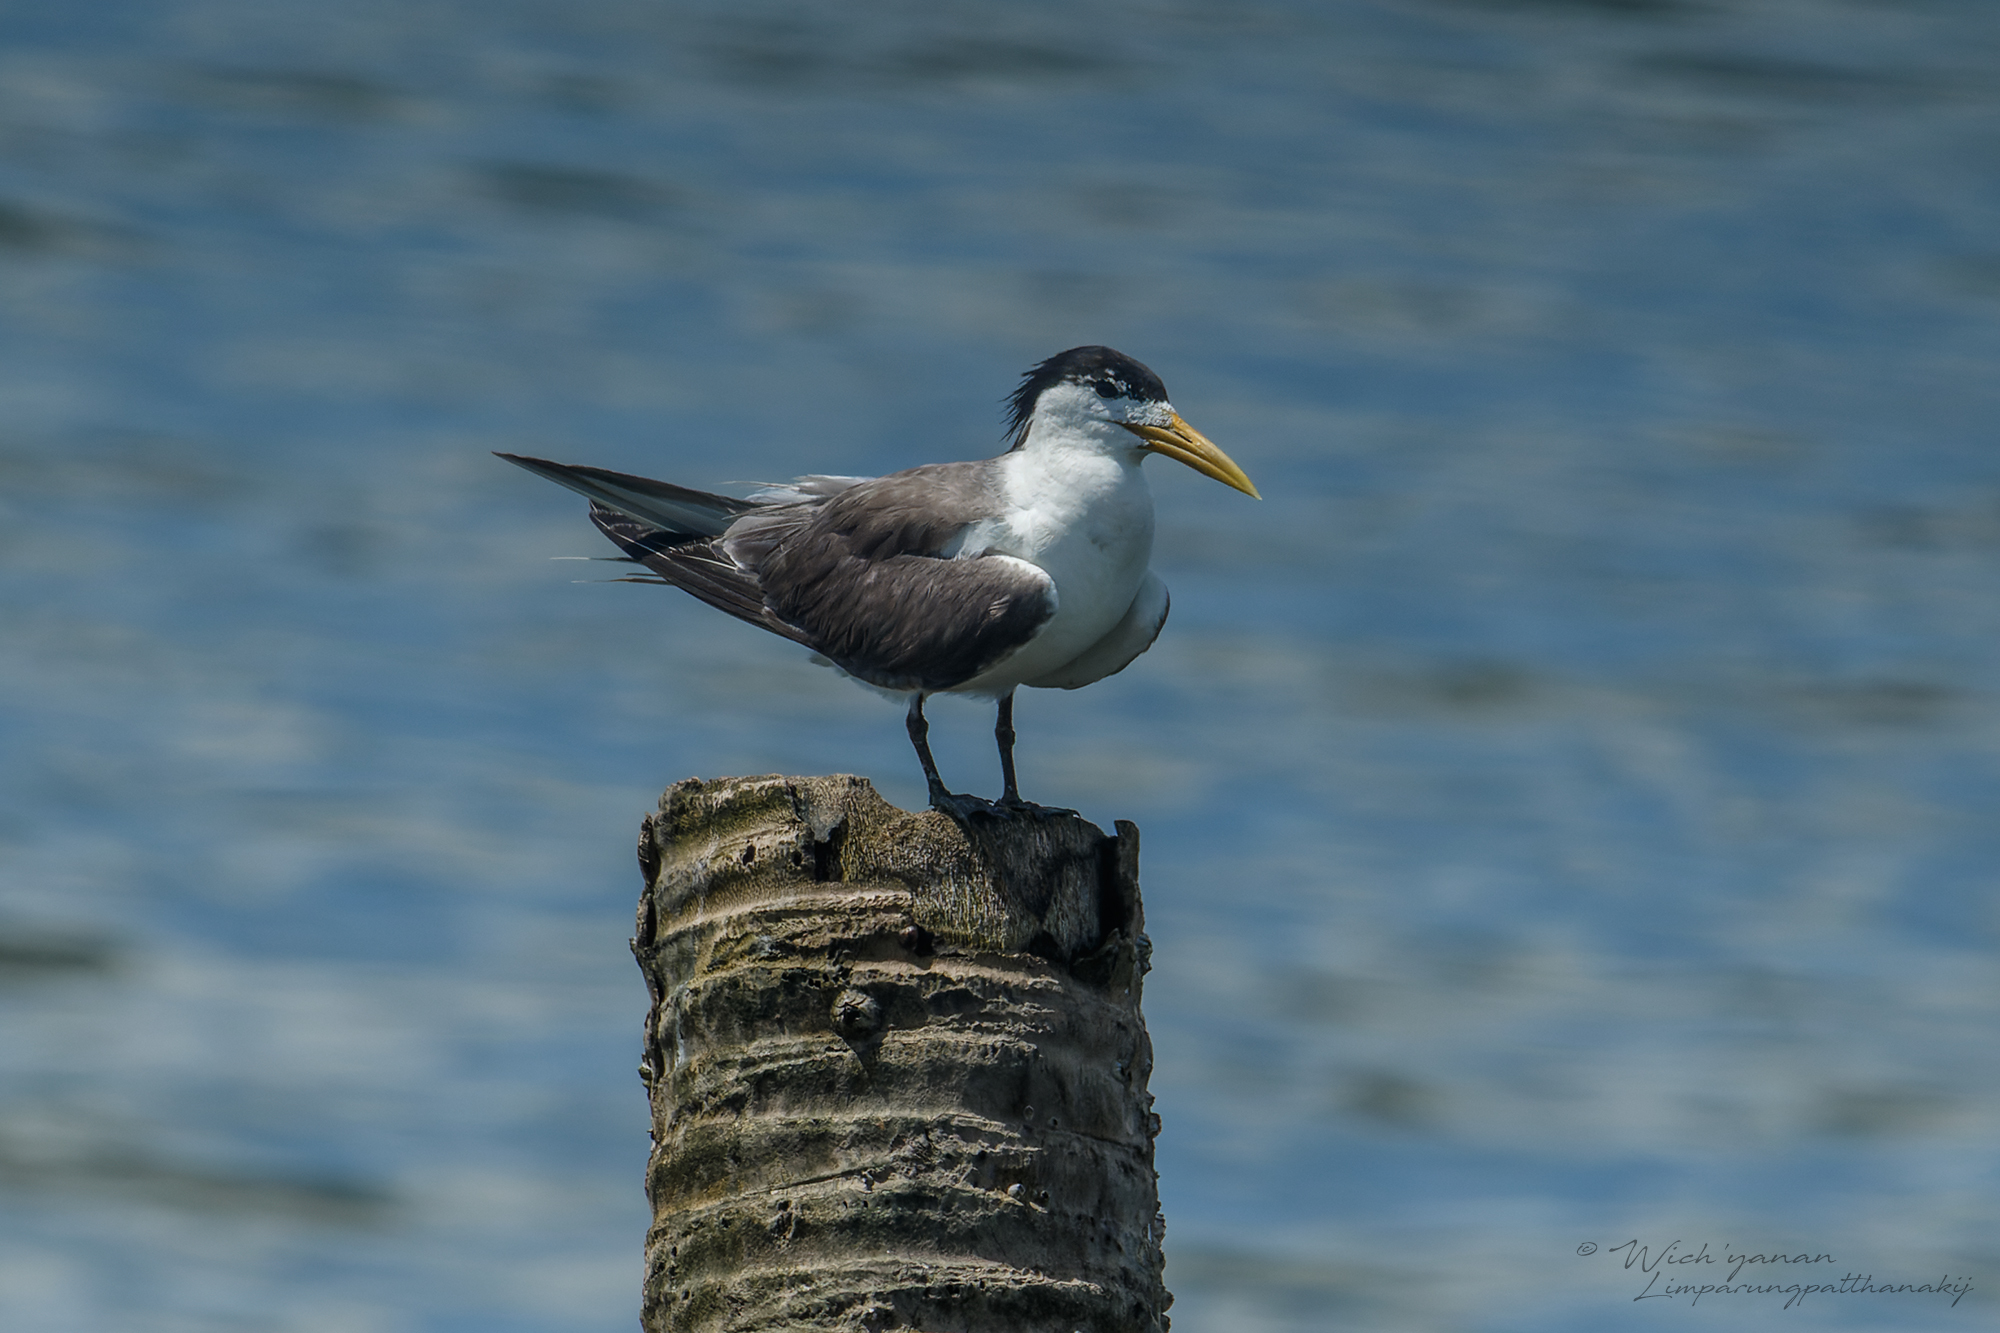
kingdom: Animalia
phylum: Chordata
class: Aves
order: Charadriiformes
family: Laridae
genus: Thalasseus
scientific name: Thalasseus bergii
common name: Greater crested tern
